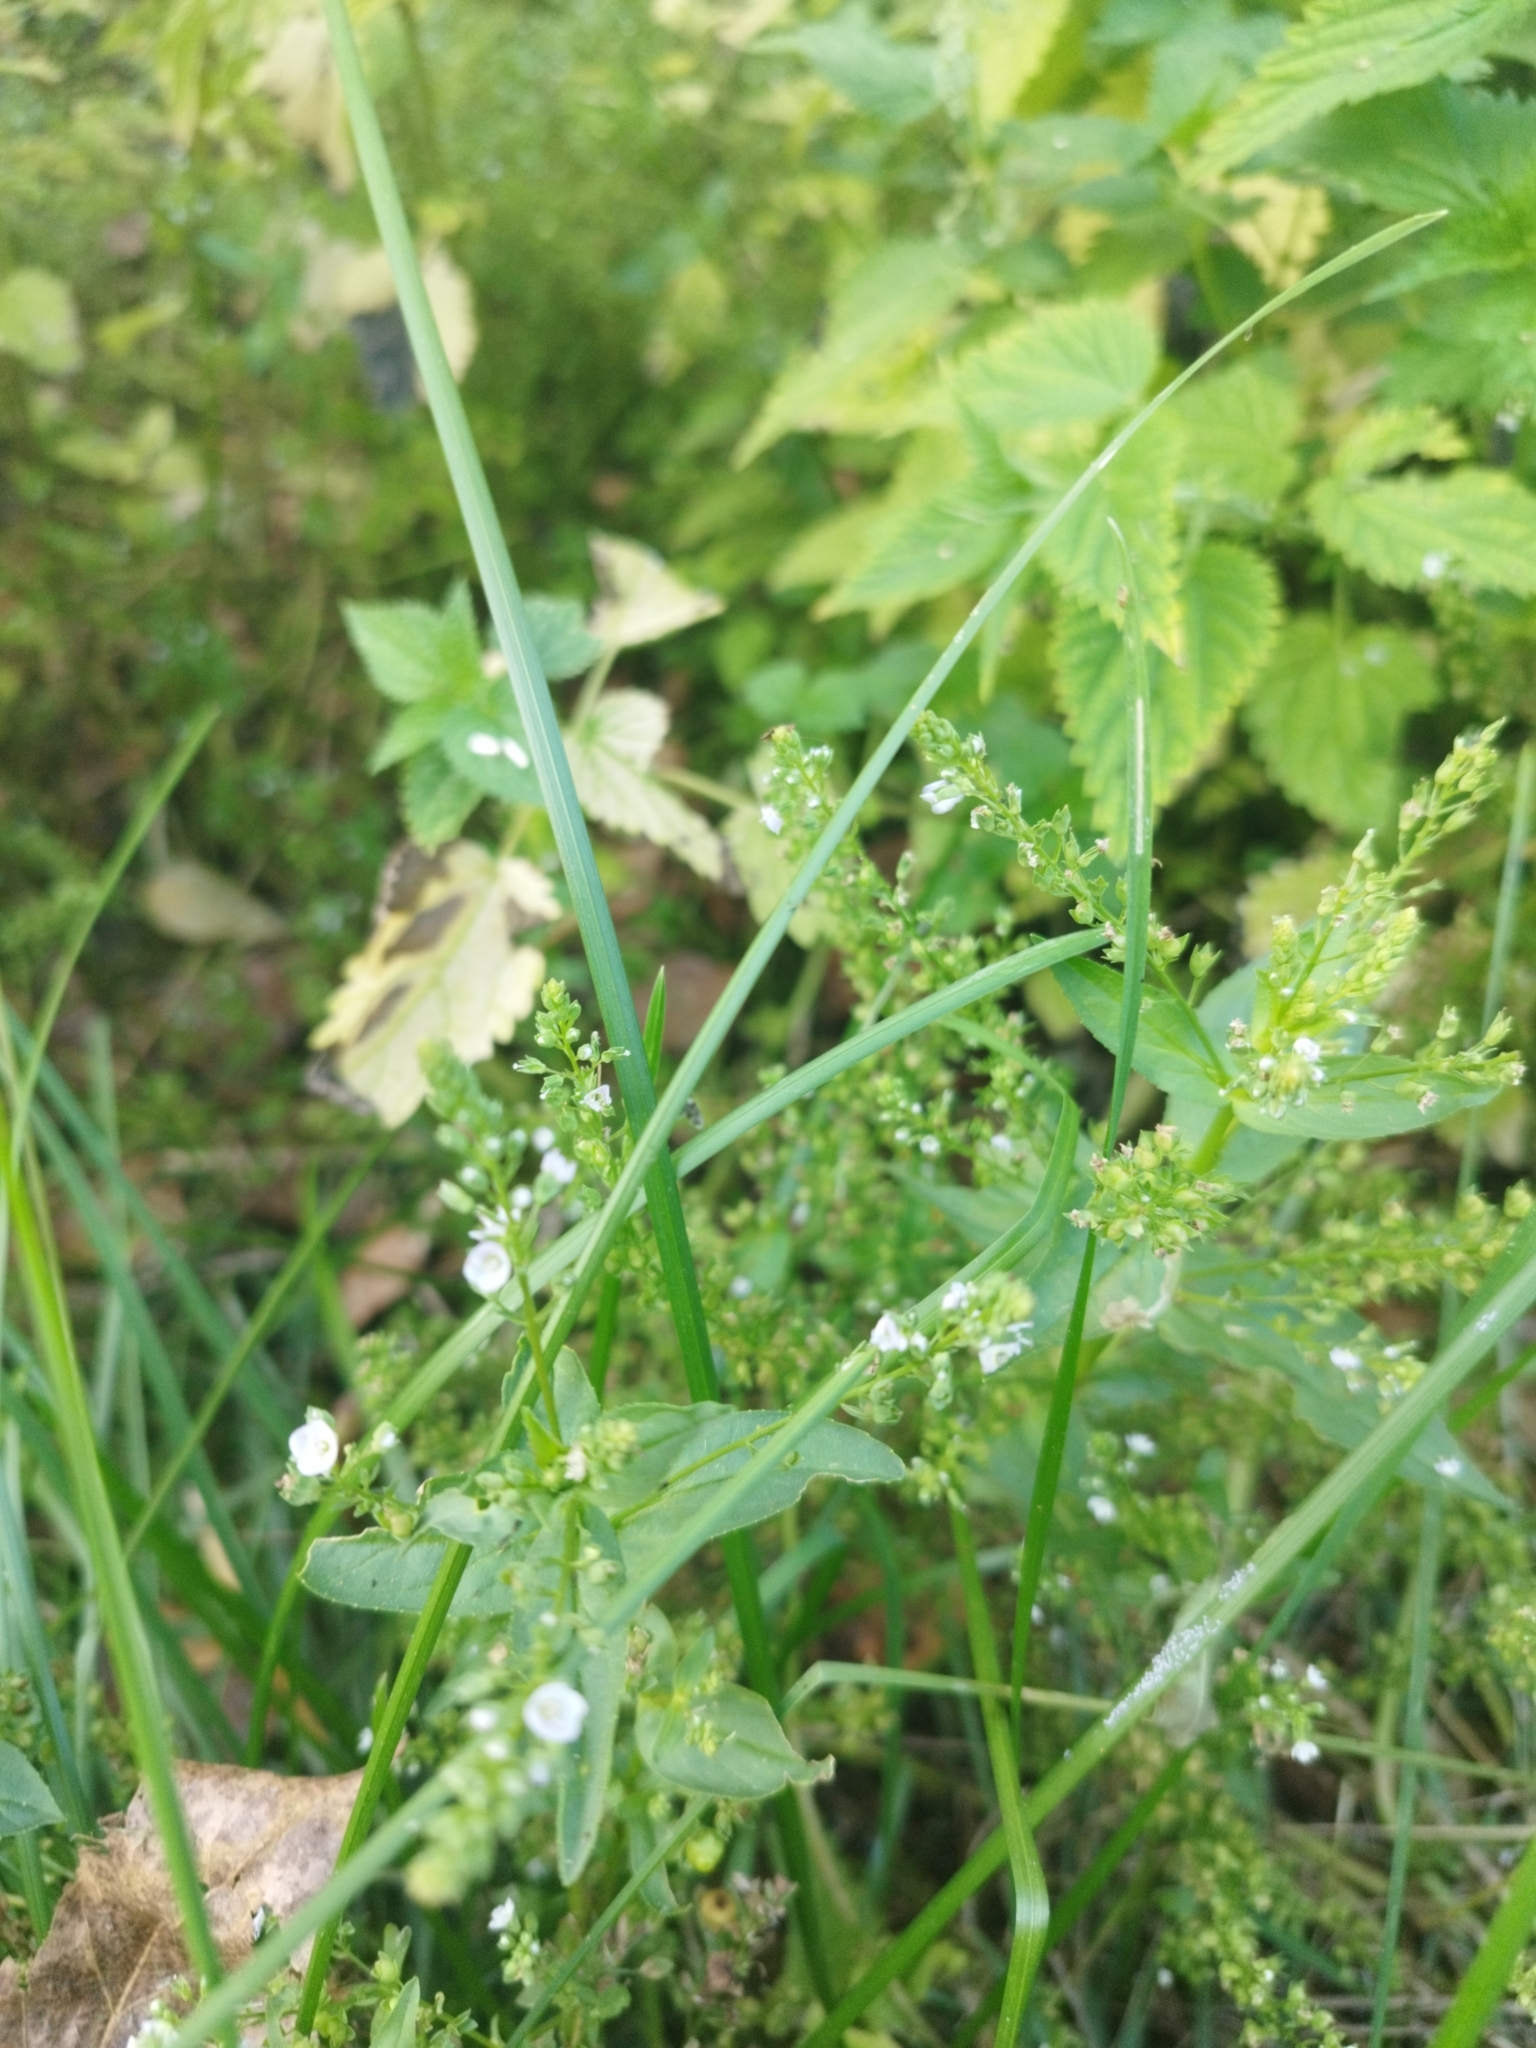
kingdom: Plantae
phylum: Tracheophyta
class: Magnoliopsida
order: Lamiales
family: Plantaginaceae
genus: Veronica
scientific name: Veronica anagallis-aquatica
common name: Water speedwell
